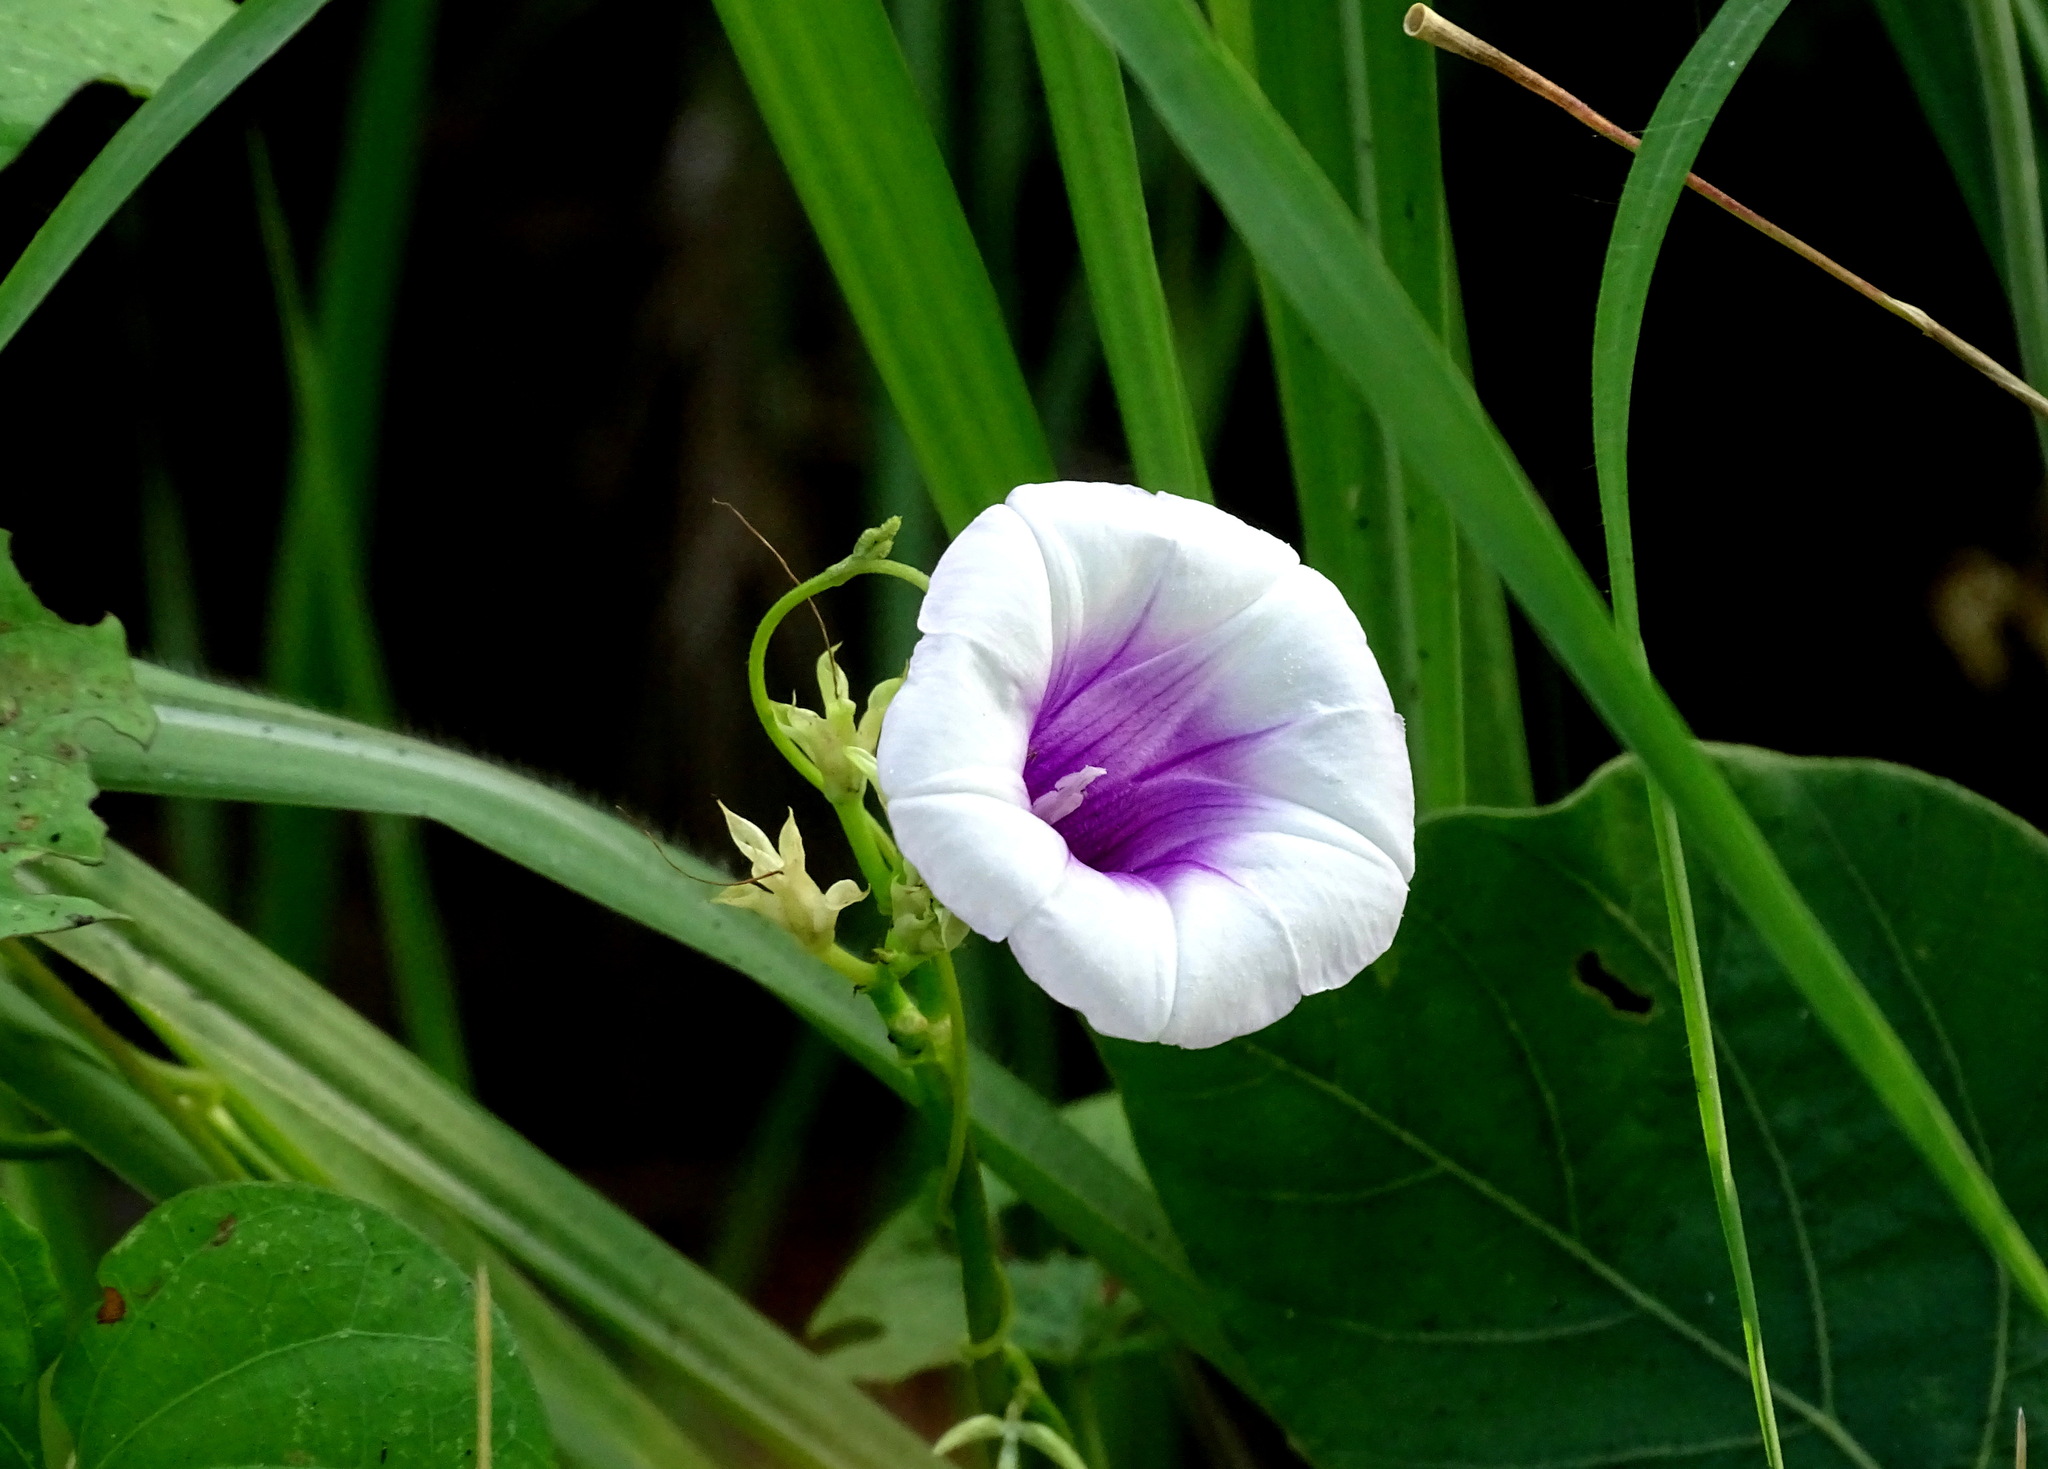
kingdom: Plantae
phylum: Tracheophyta
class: Magnoliopsida
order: Solanales
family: Convolvulaceae
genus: Ipomoea
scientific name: Ipomoea batatas
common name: Sweet-potato
